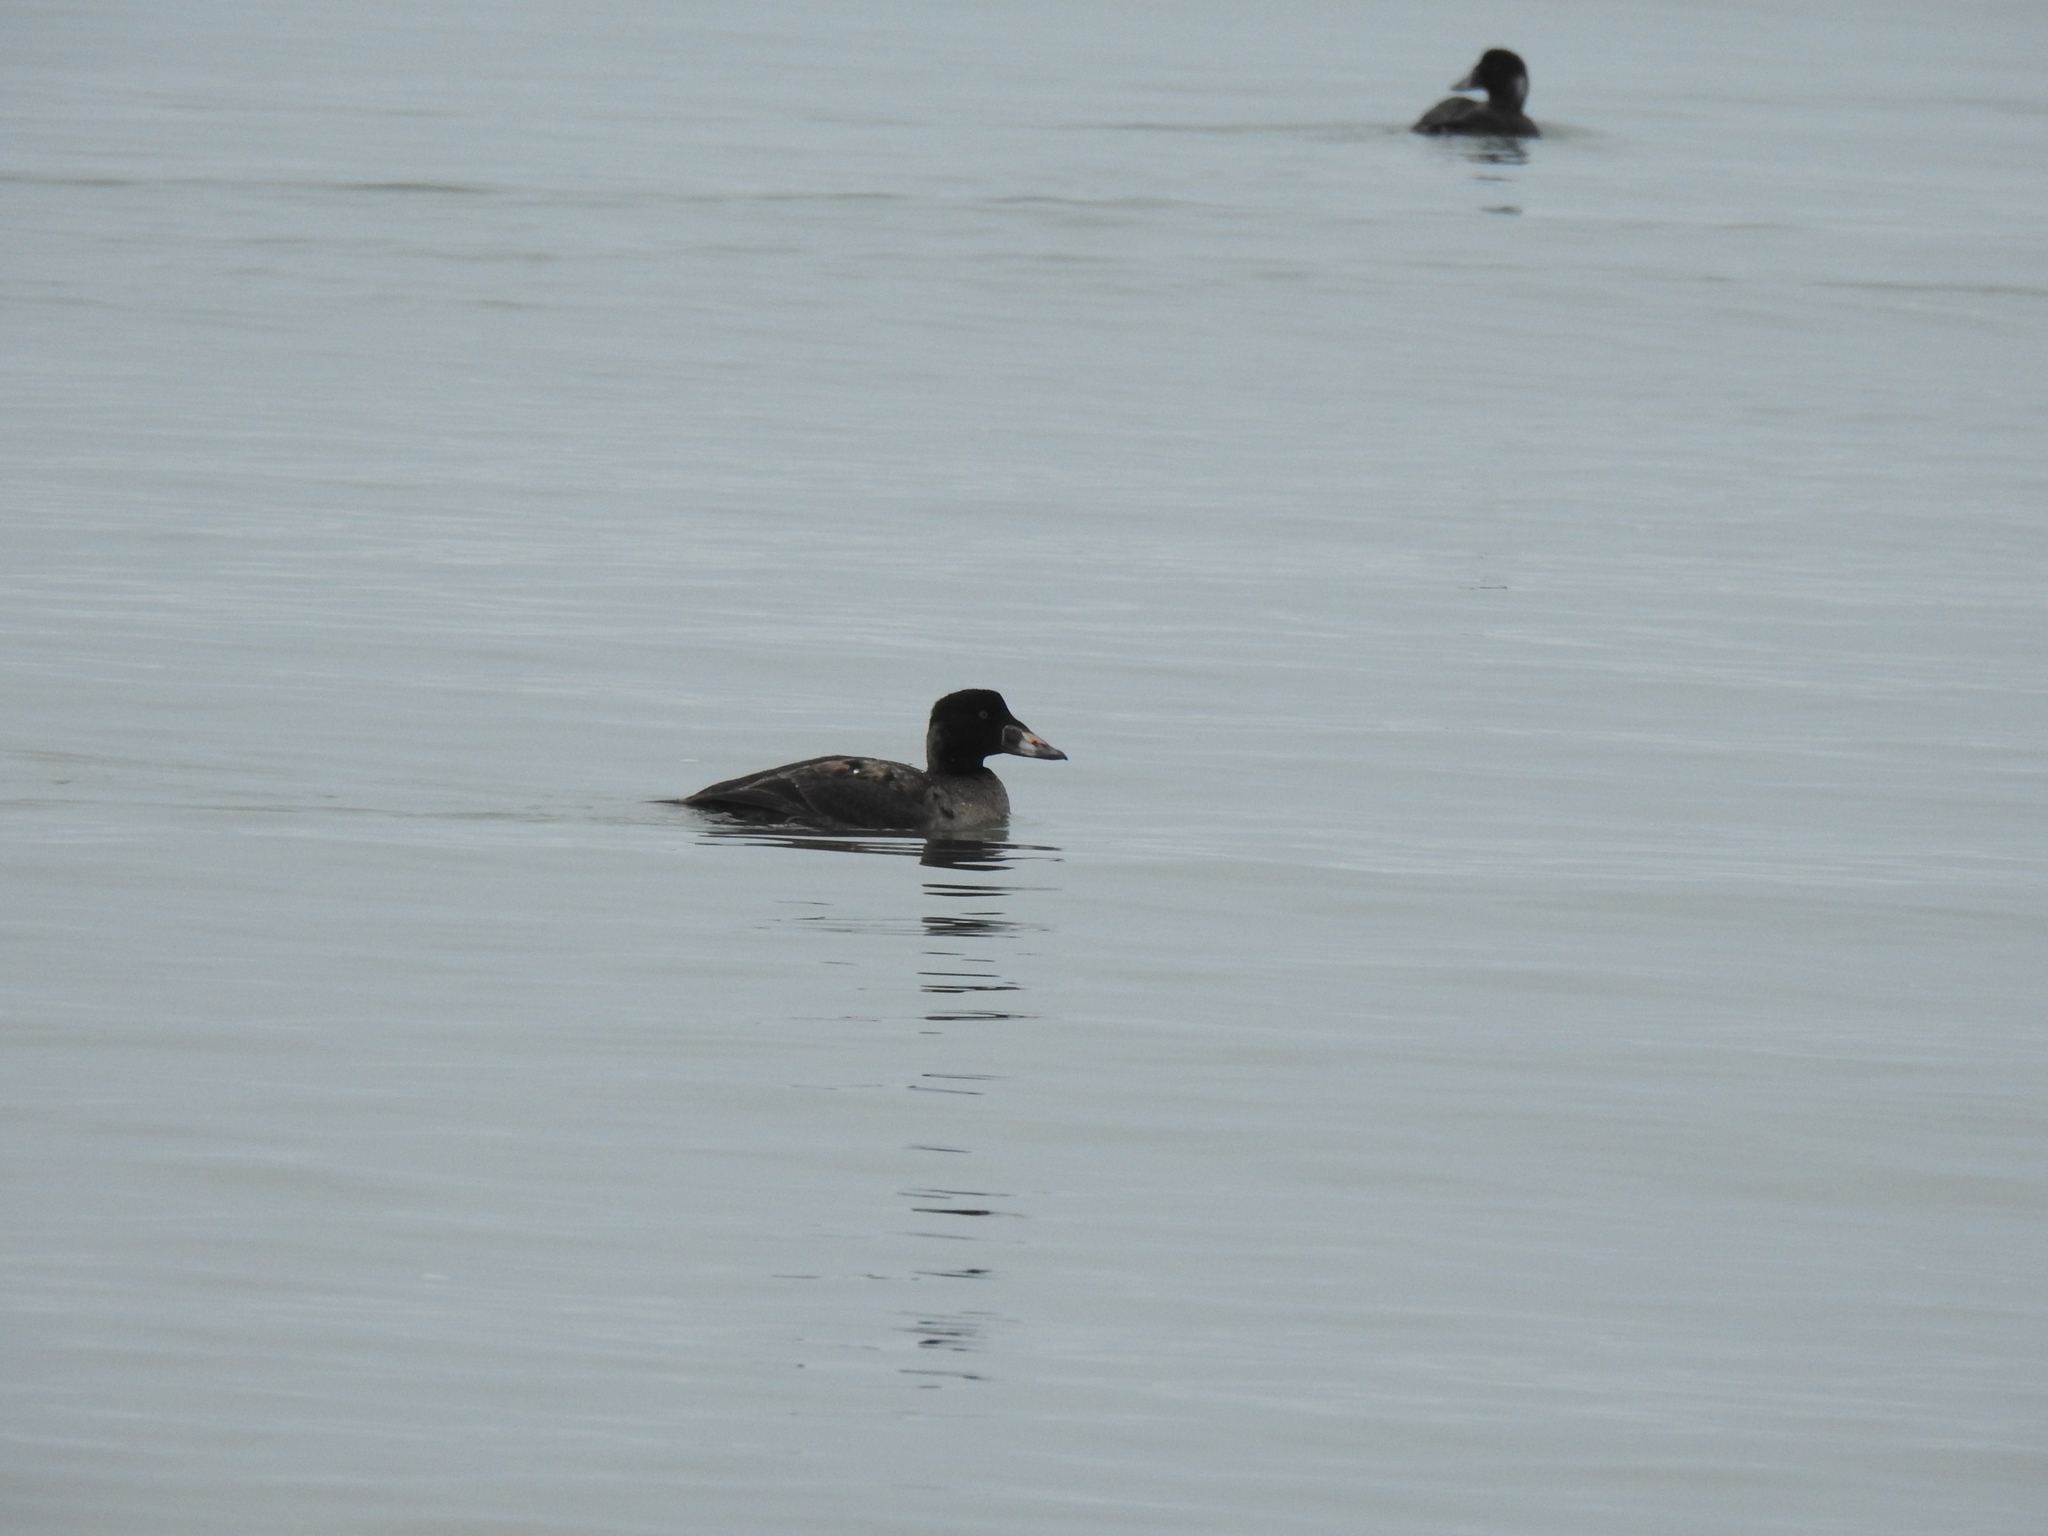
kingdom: Animalia
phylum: Chordata
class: Aves
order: Anseriformes
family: Anatidae
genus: Melanitta
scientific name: Melanitta perspicillata
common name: Surf scoter
